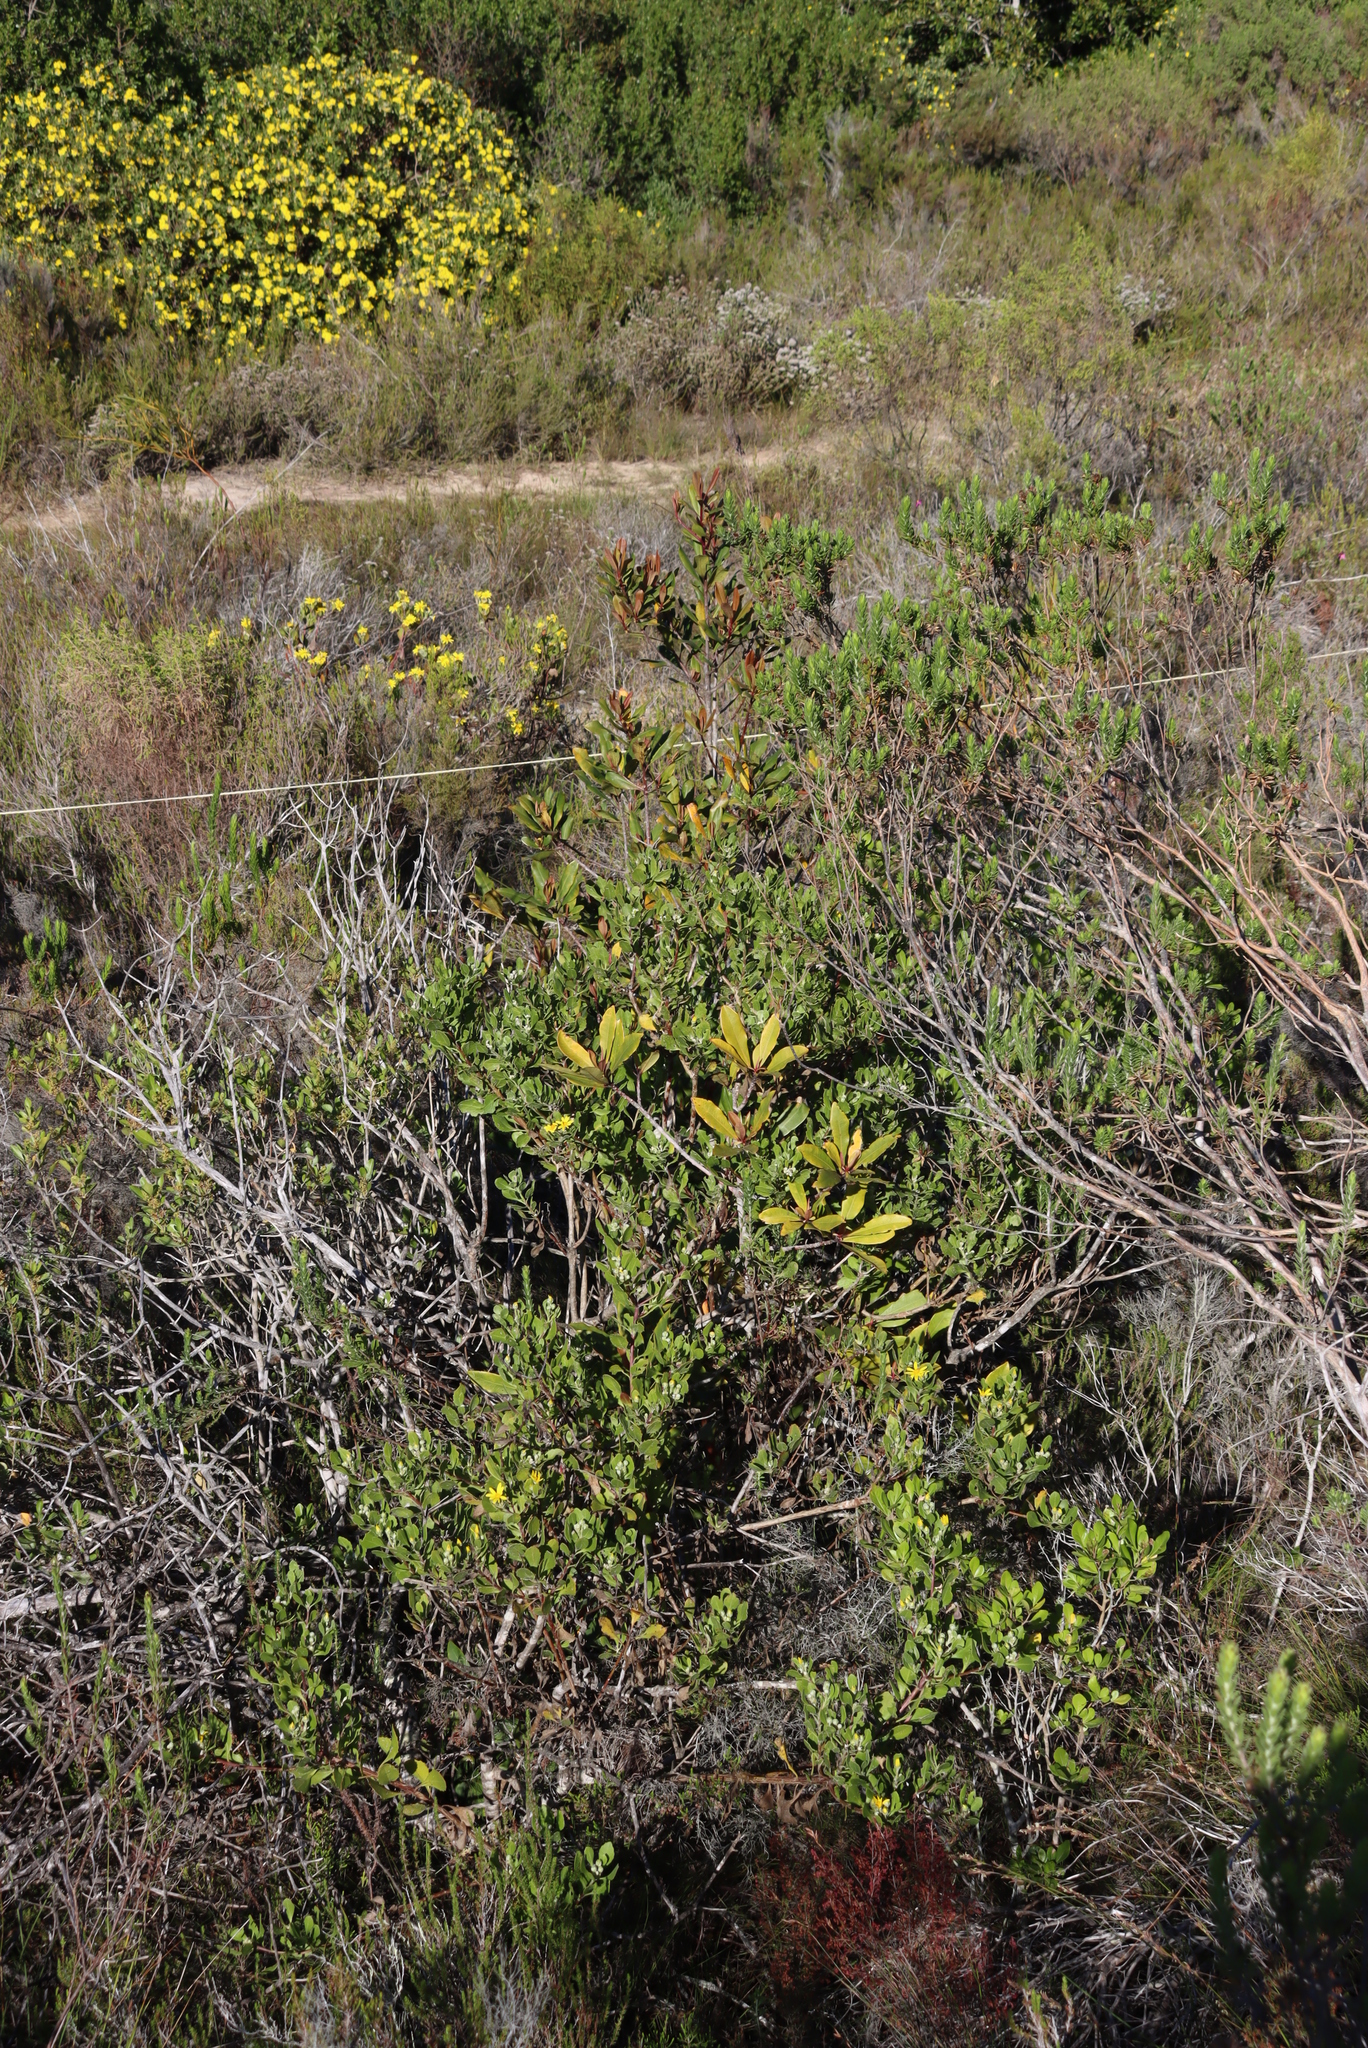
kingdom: Plantae
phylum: Tracheophyta
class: Magnoliopsida
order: Ericales
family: Primulaceae
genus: Myrsine
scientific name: Myrsine melanophloeos
